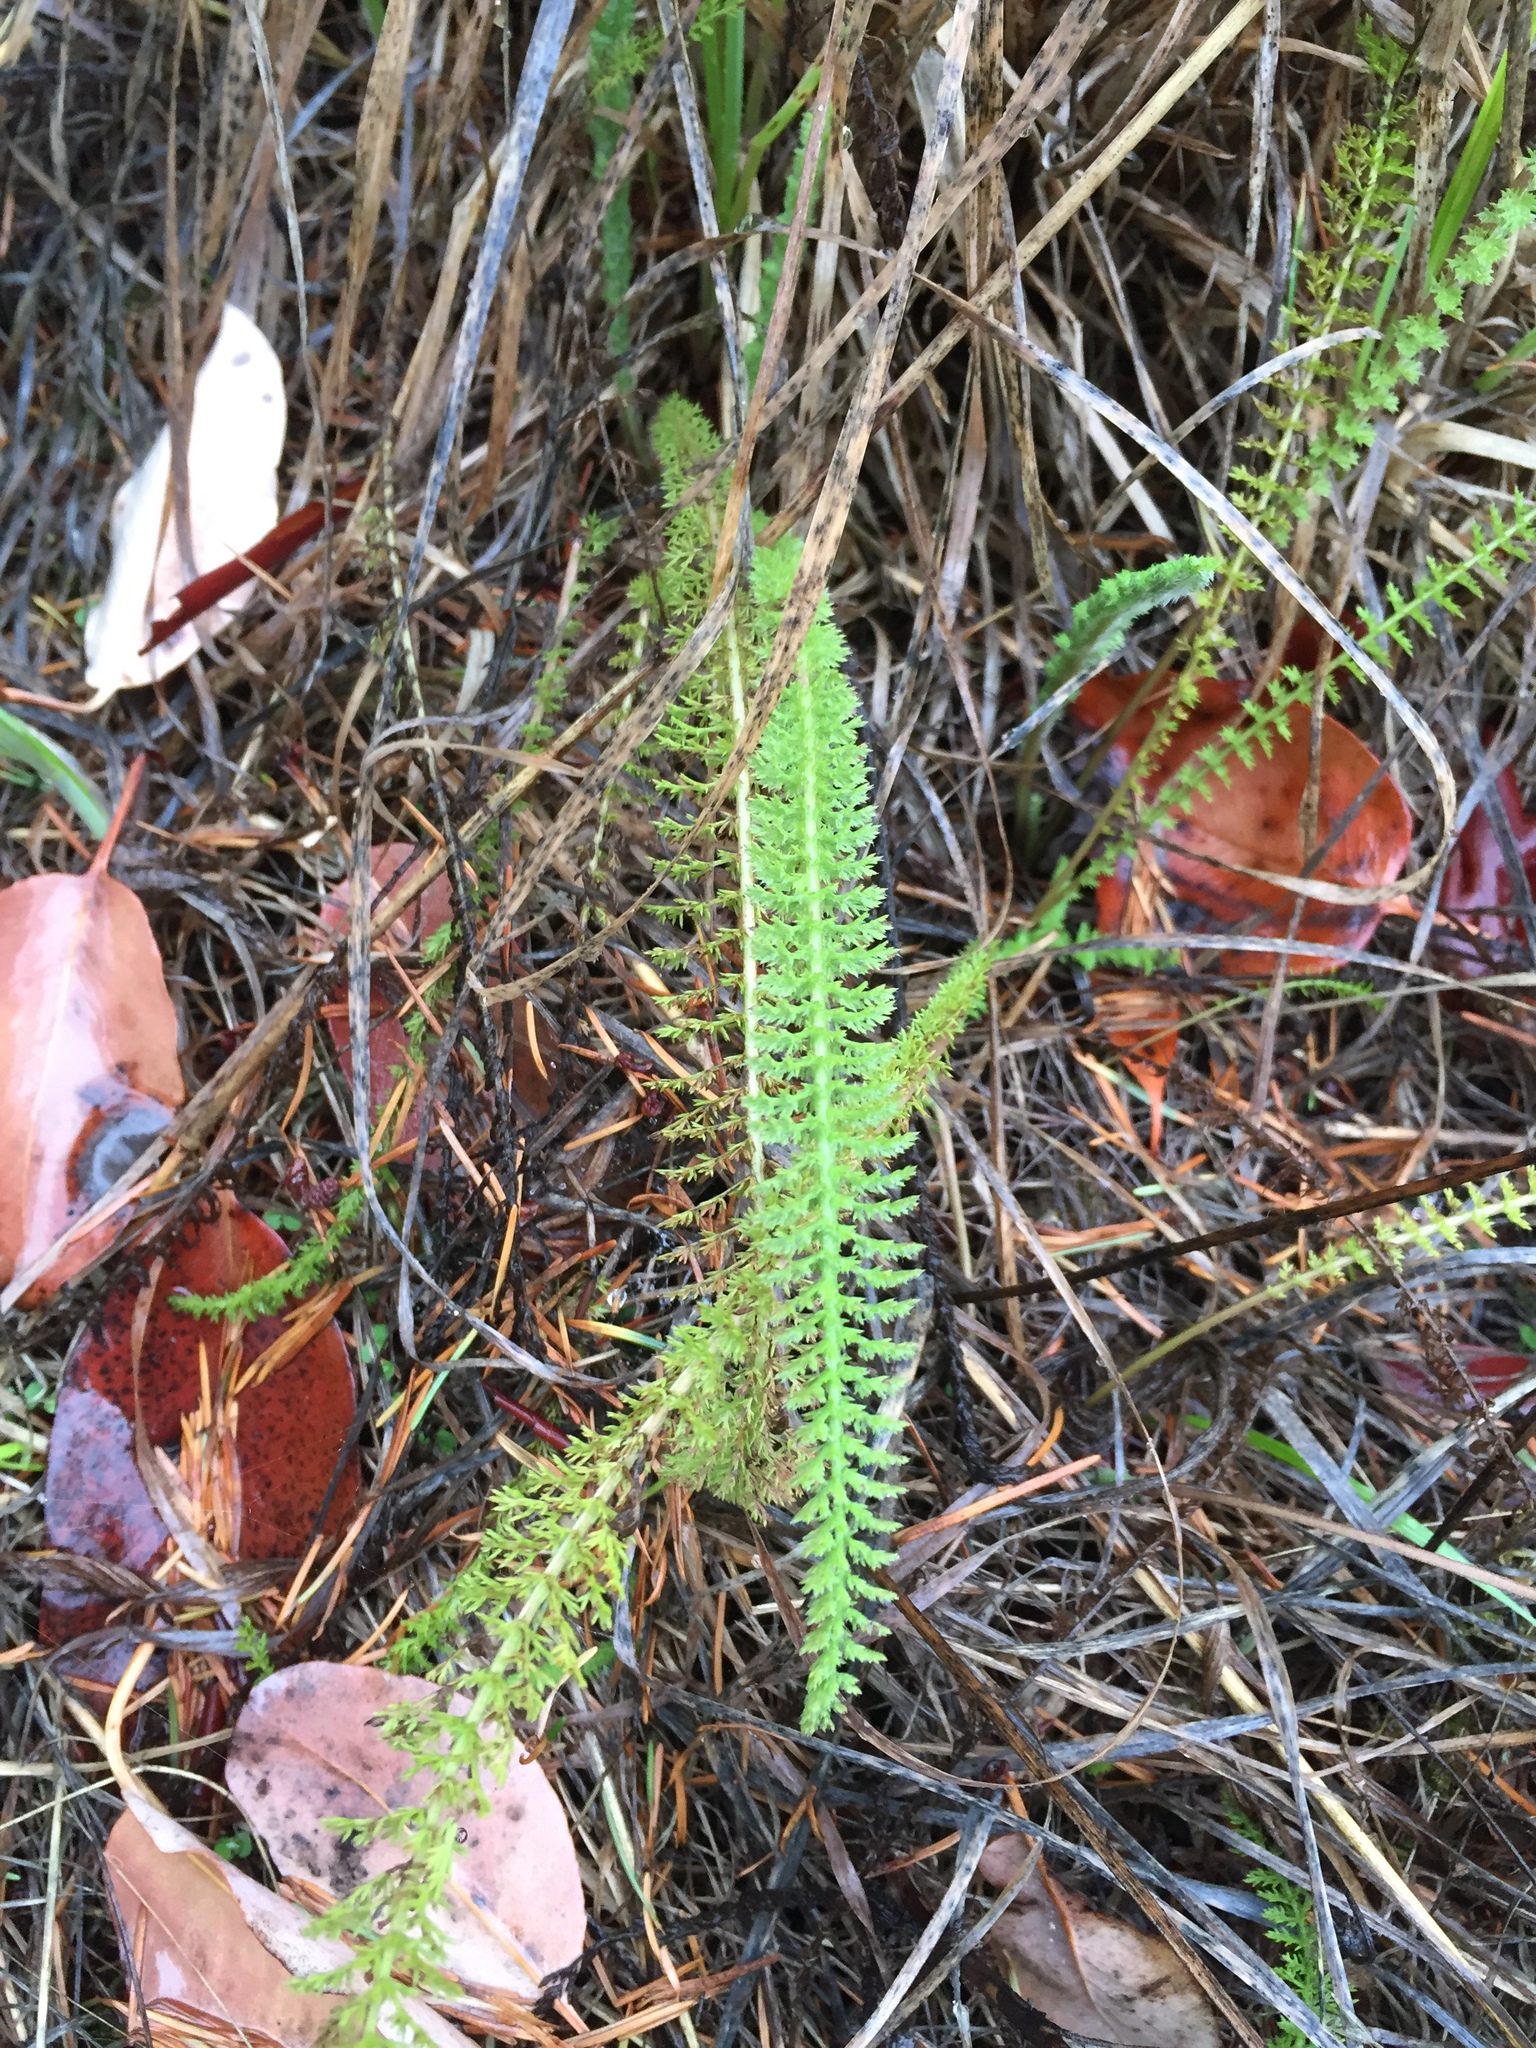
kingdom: Plantae
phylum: Tracheophyta
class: Magnoliopsida
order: Asterales
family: Asteraceae
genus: Achillea
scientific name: Achillea millefolium
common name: Yarrow
